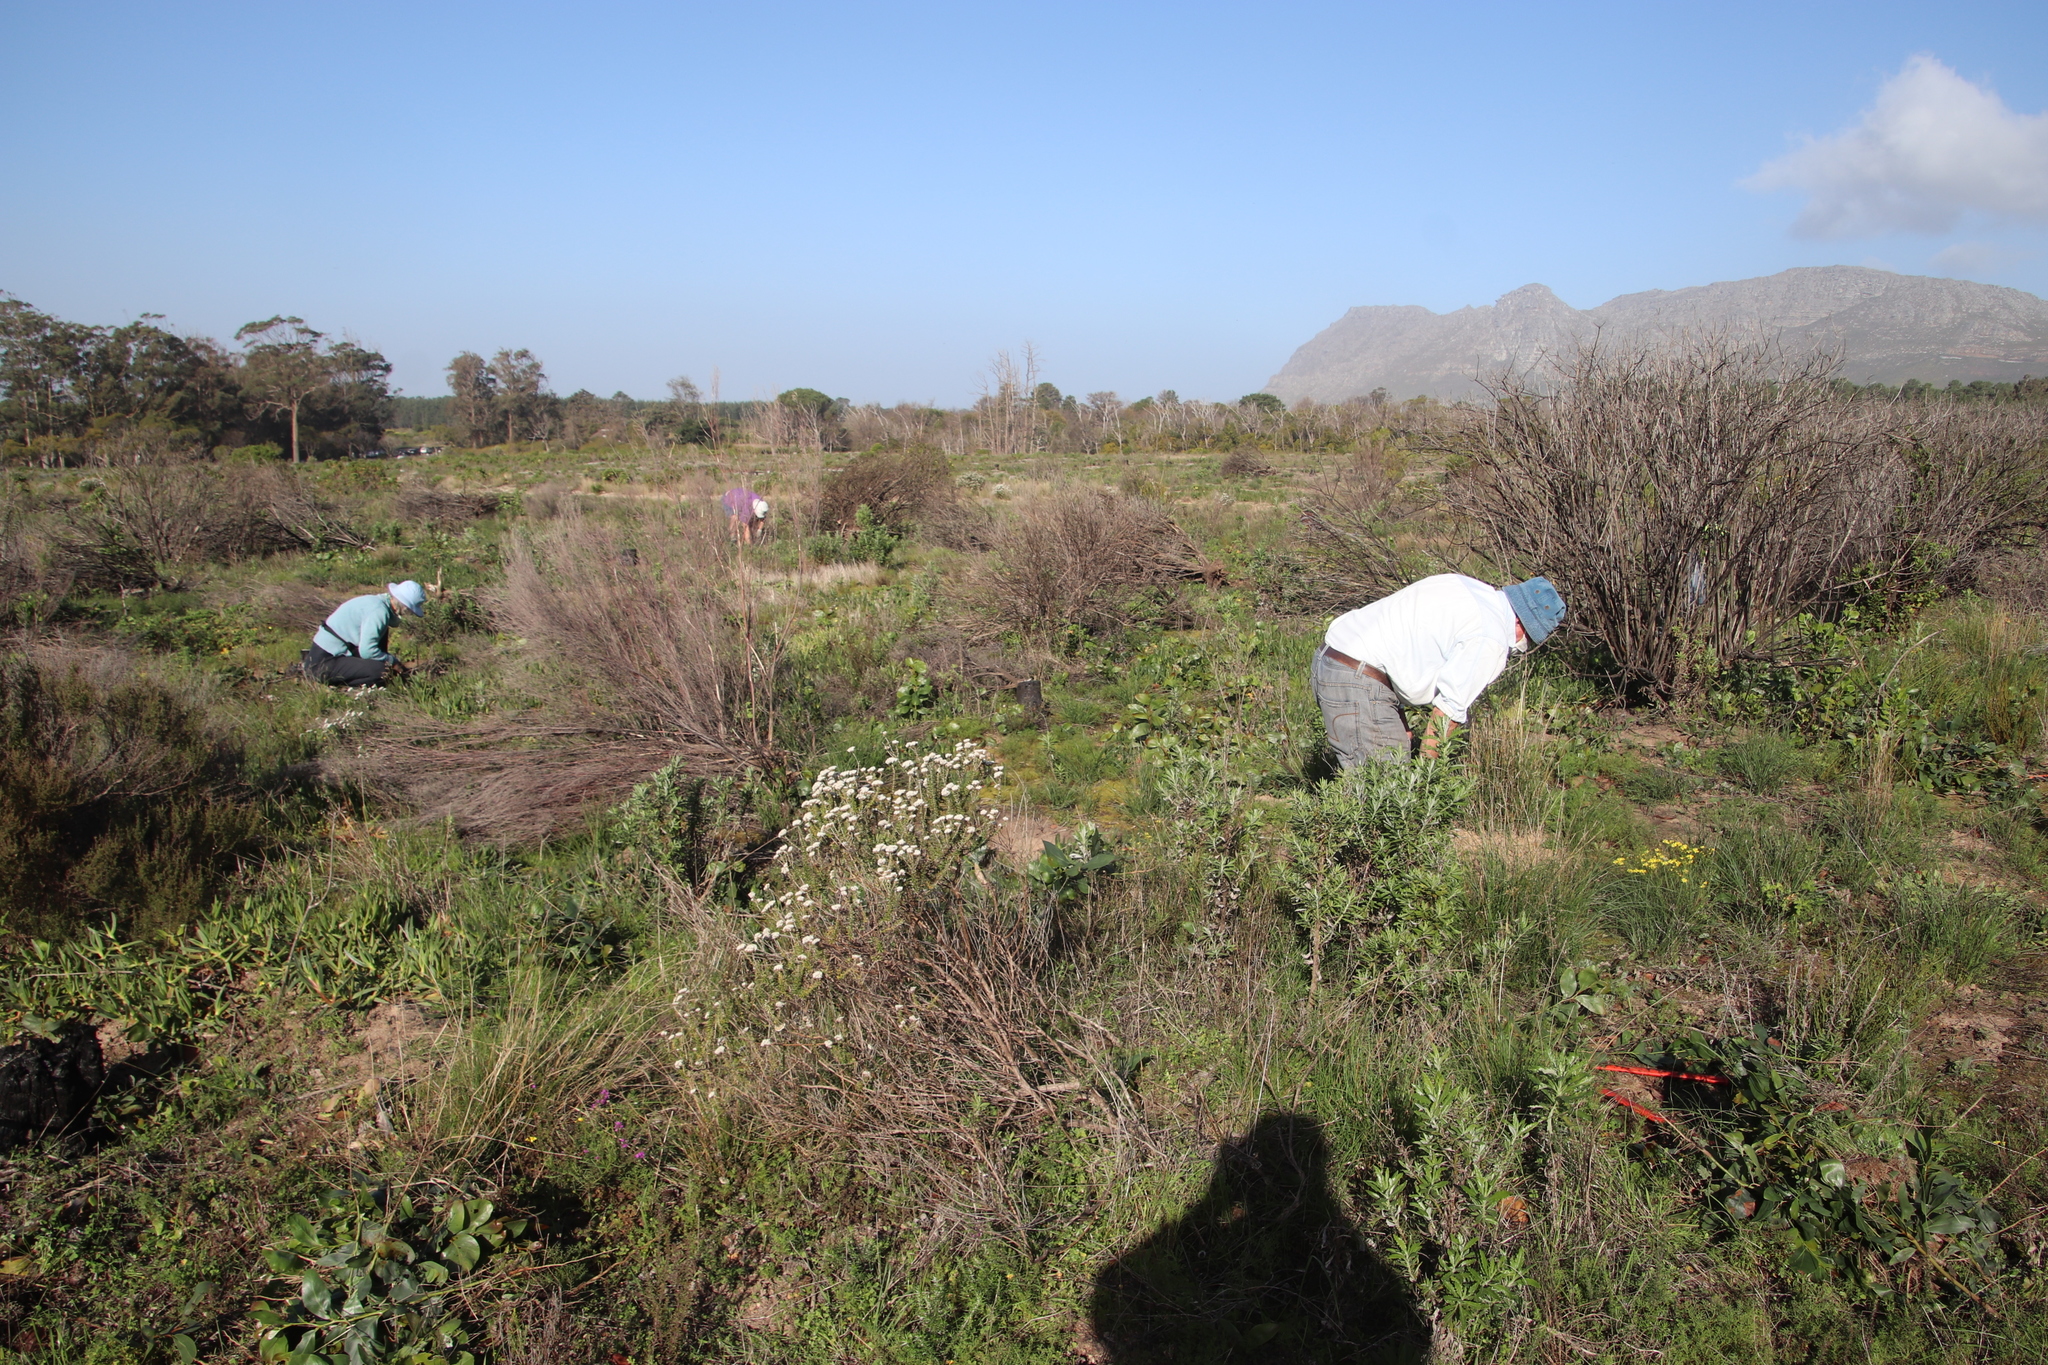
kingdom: Plantae
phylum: Tracheophyta
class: Magnoliopsida
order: Asterales
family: Asteraceae
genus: Metalasia
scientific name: Metalasia densa
